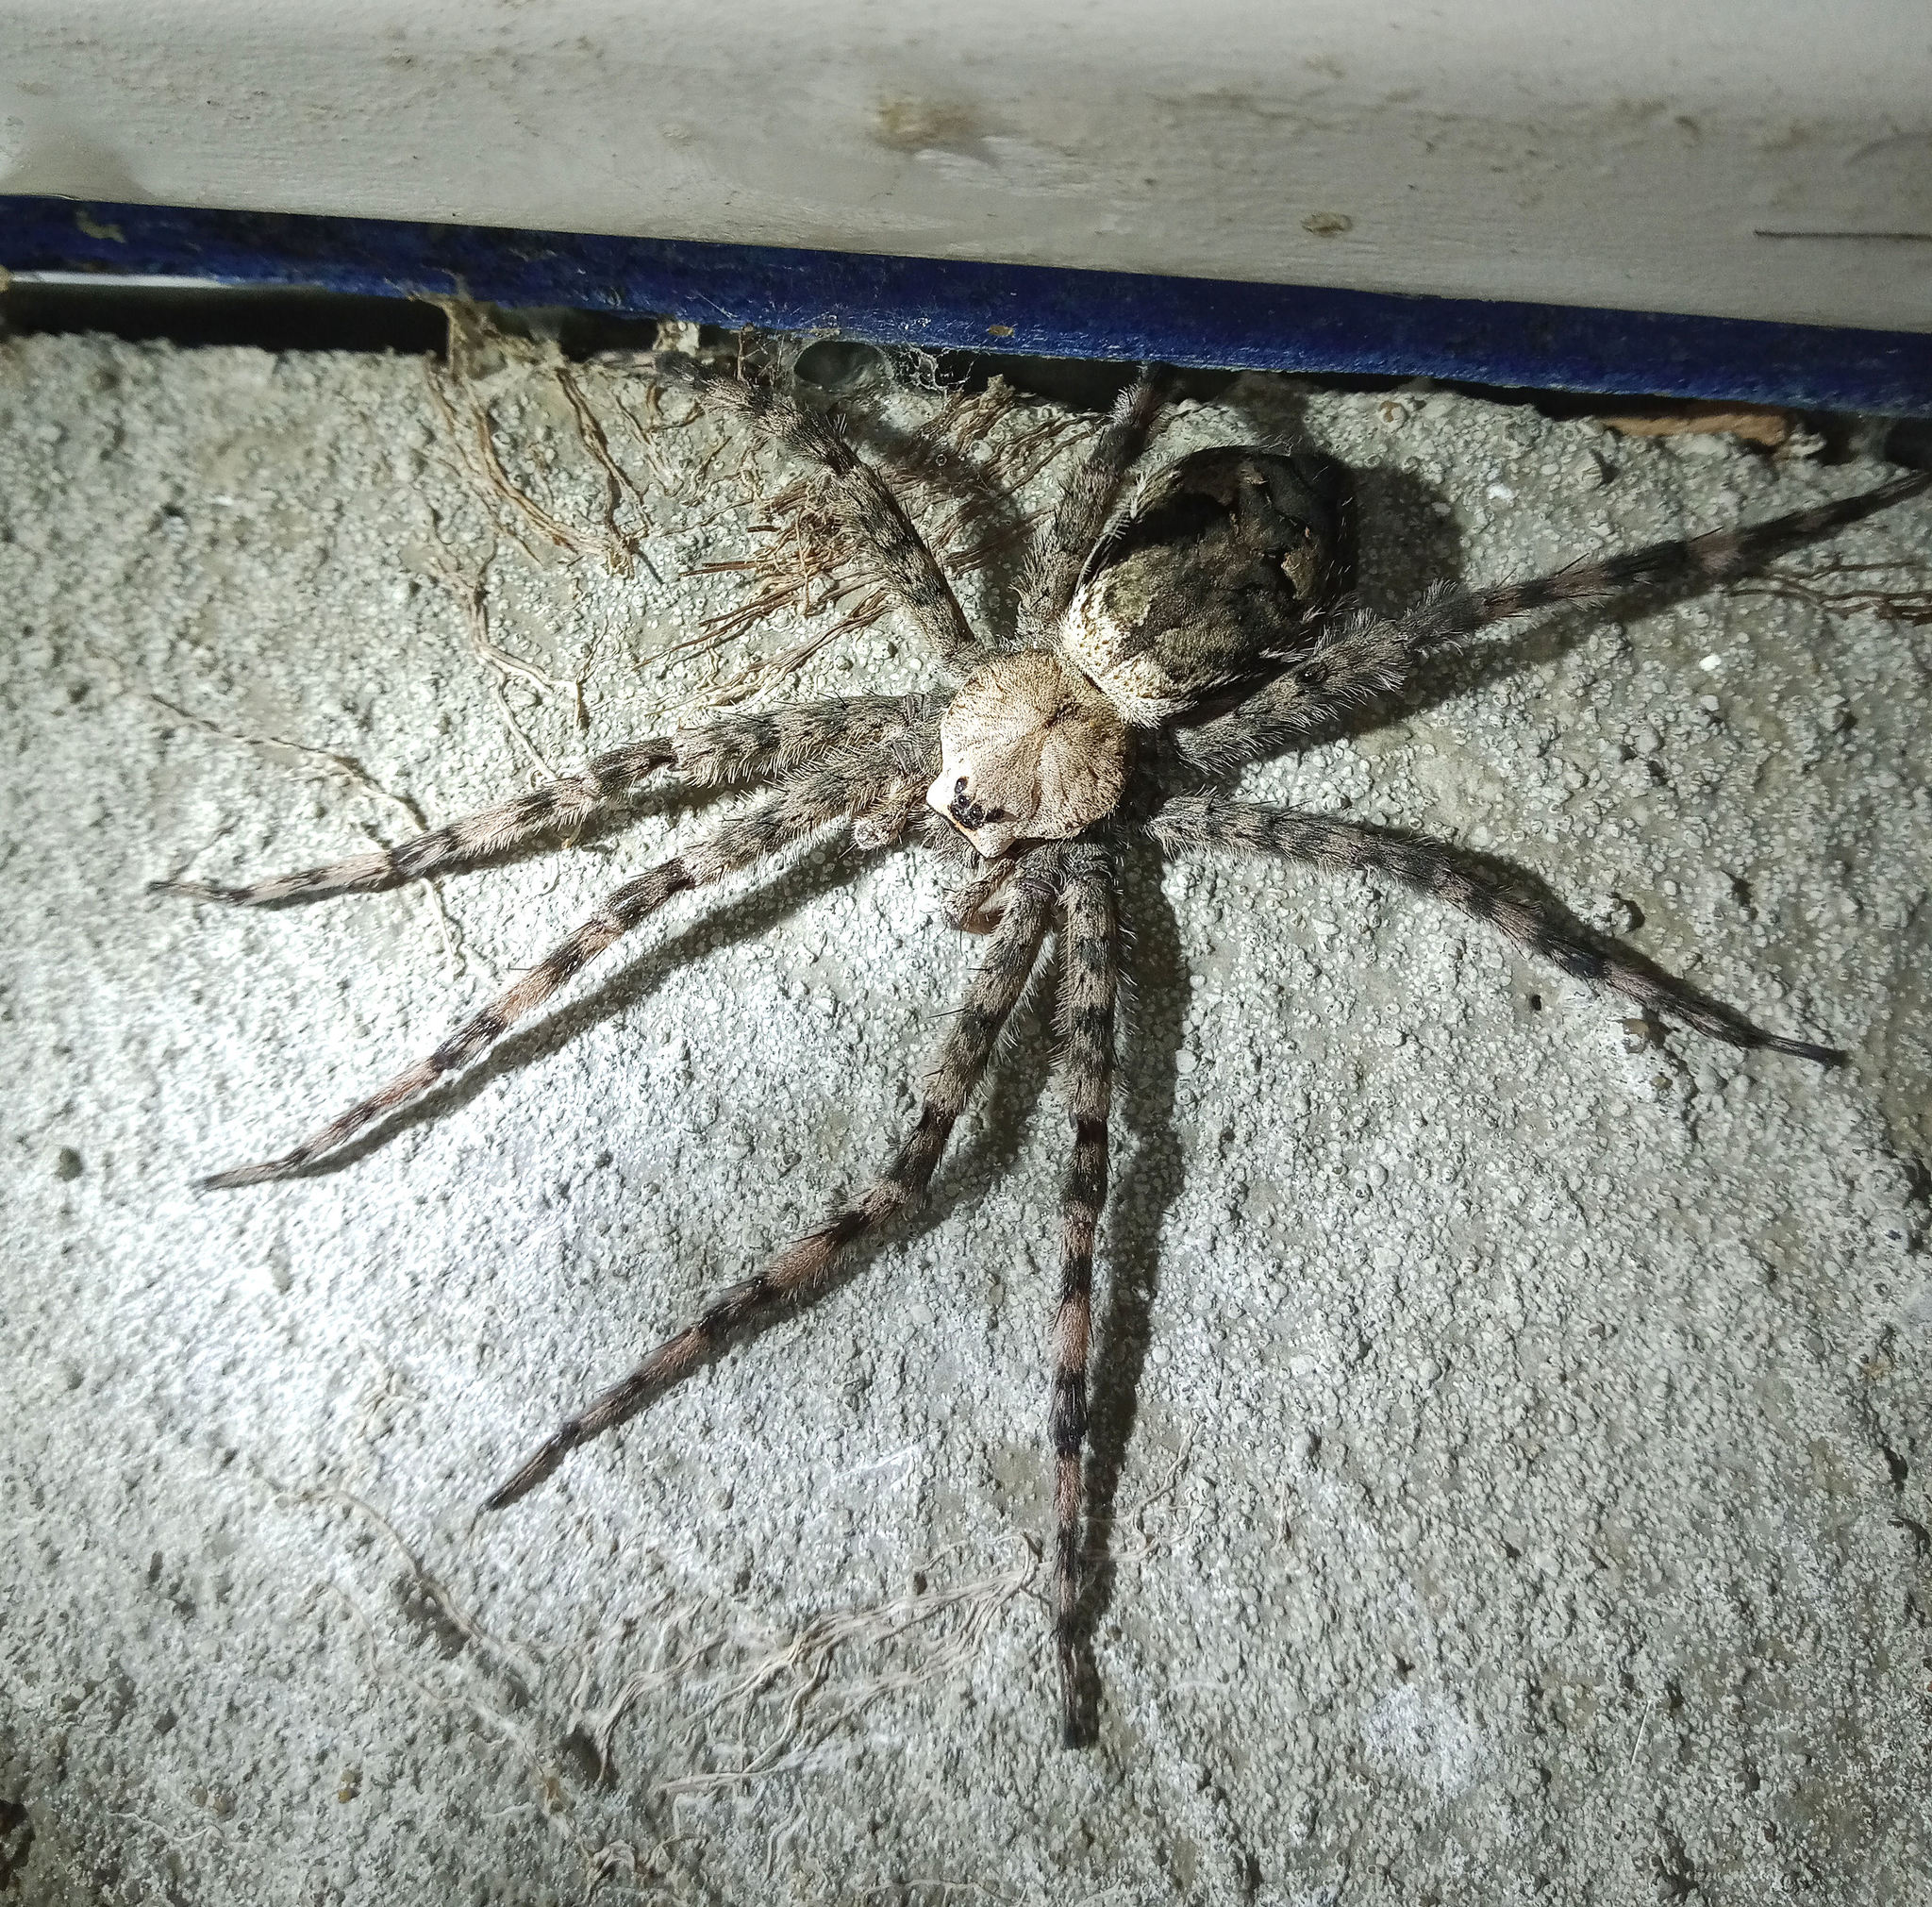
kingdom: Animalia
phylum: Arthropoda
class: Arachnida
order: Araneae
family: Pisauridae
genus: Dolomedes
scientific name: Dolomedes albineus
